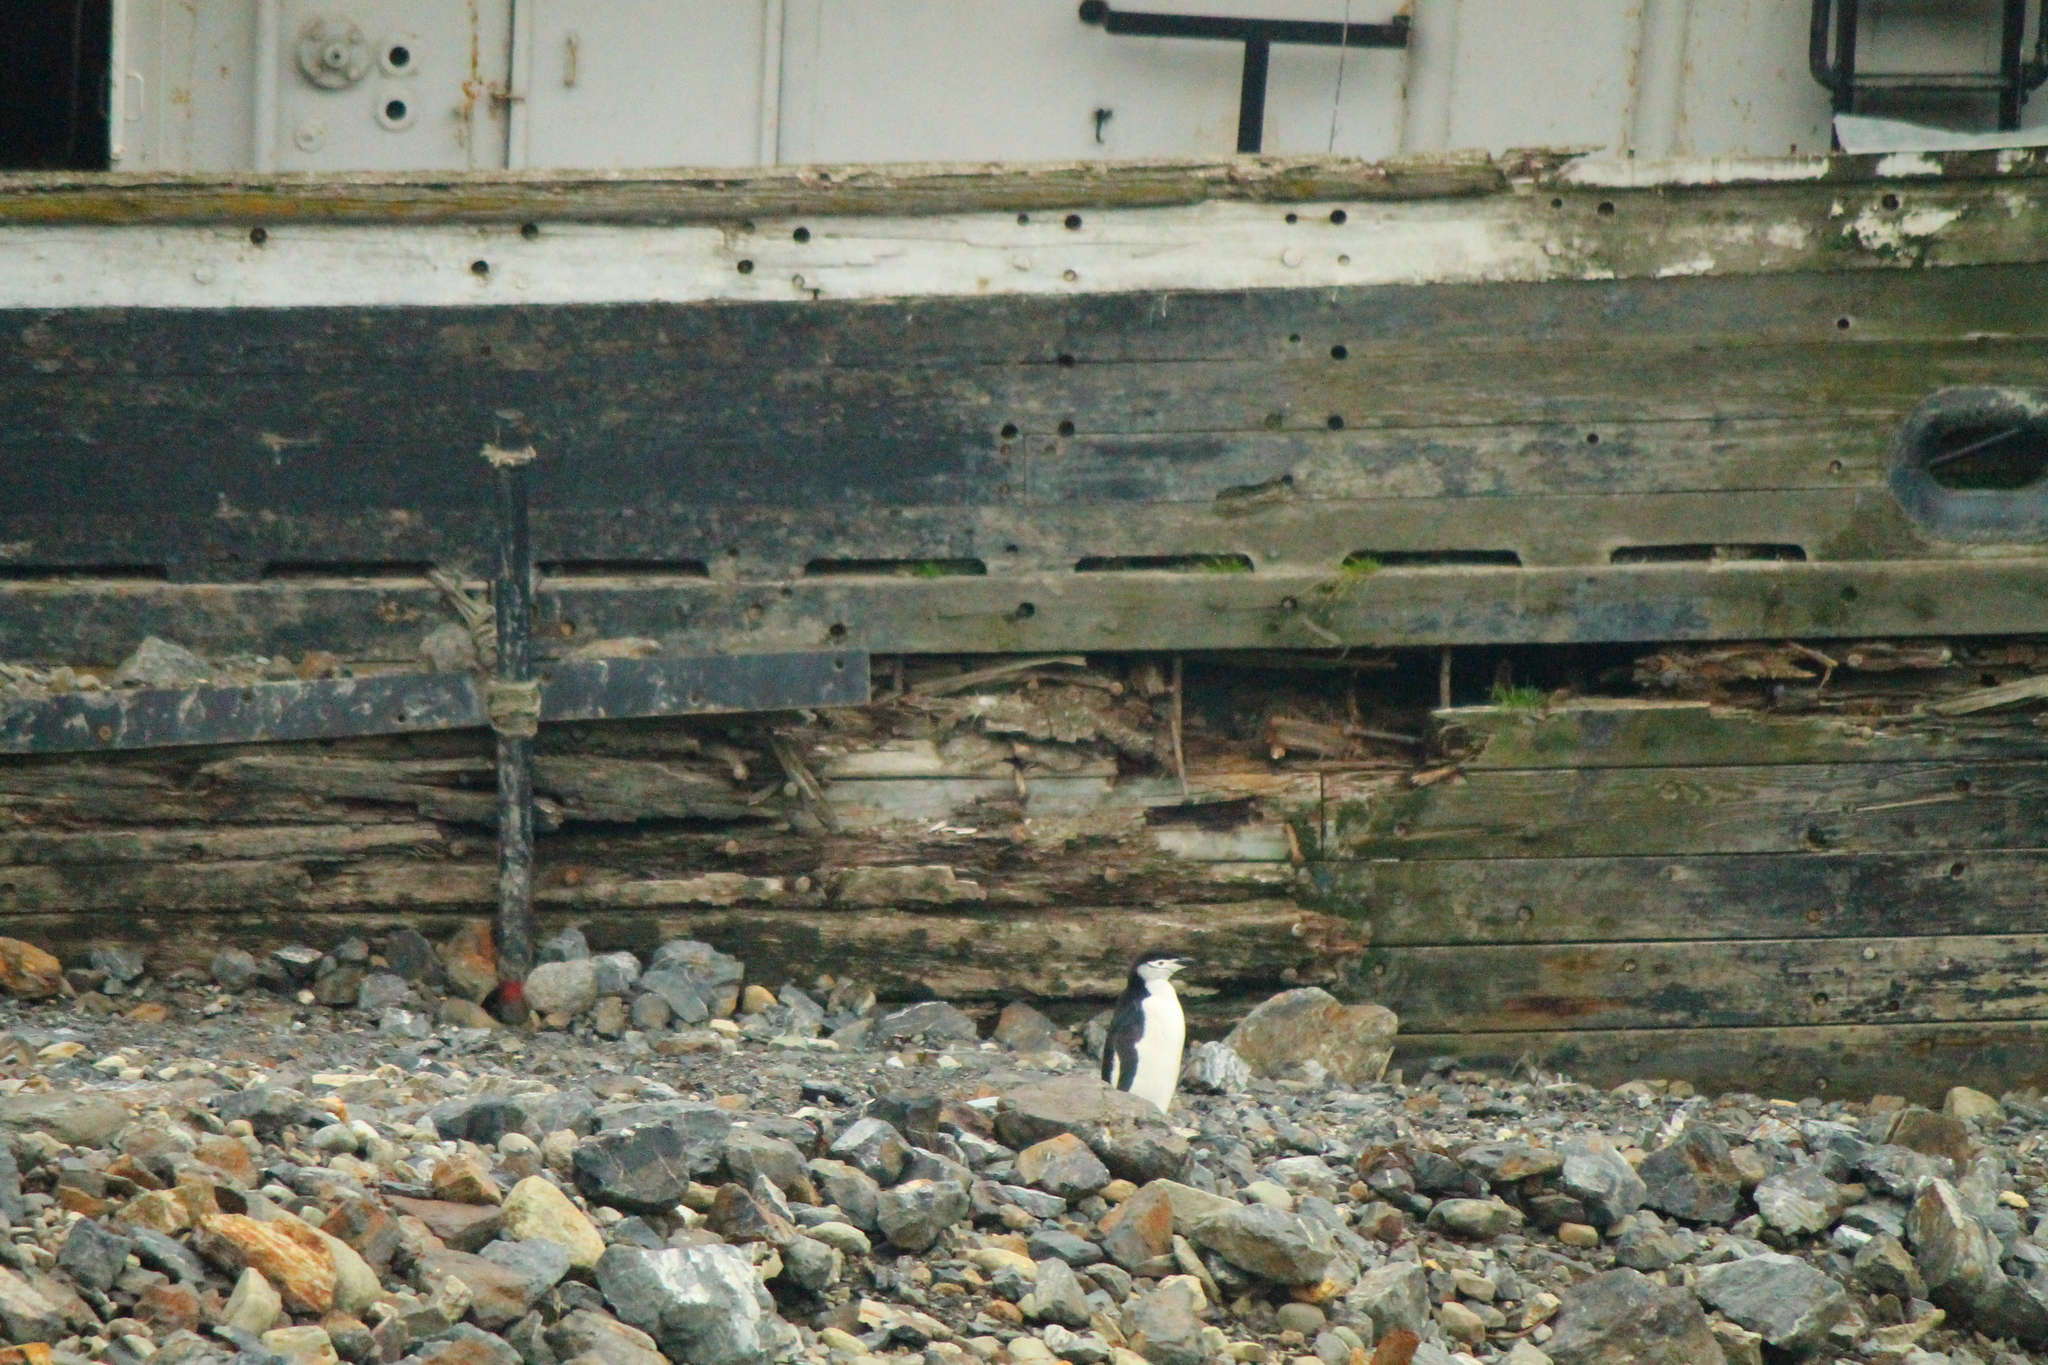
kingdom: Animalia
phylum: Chordata
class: Aves
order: Sphenisciformes
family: Spheniscidae
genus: Pygoscelis
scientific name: Pygoscelis antarcticus
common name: Chinstrap penguin
